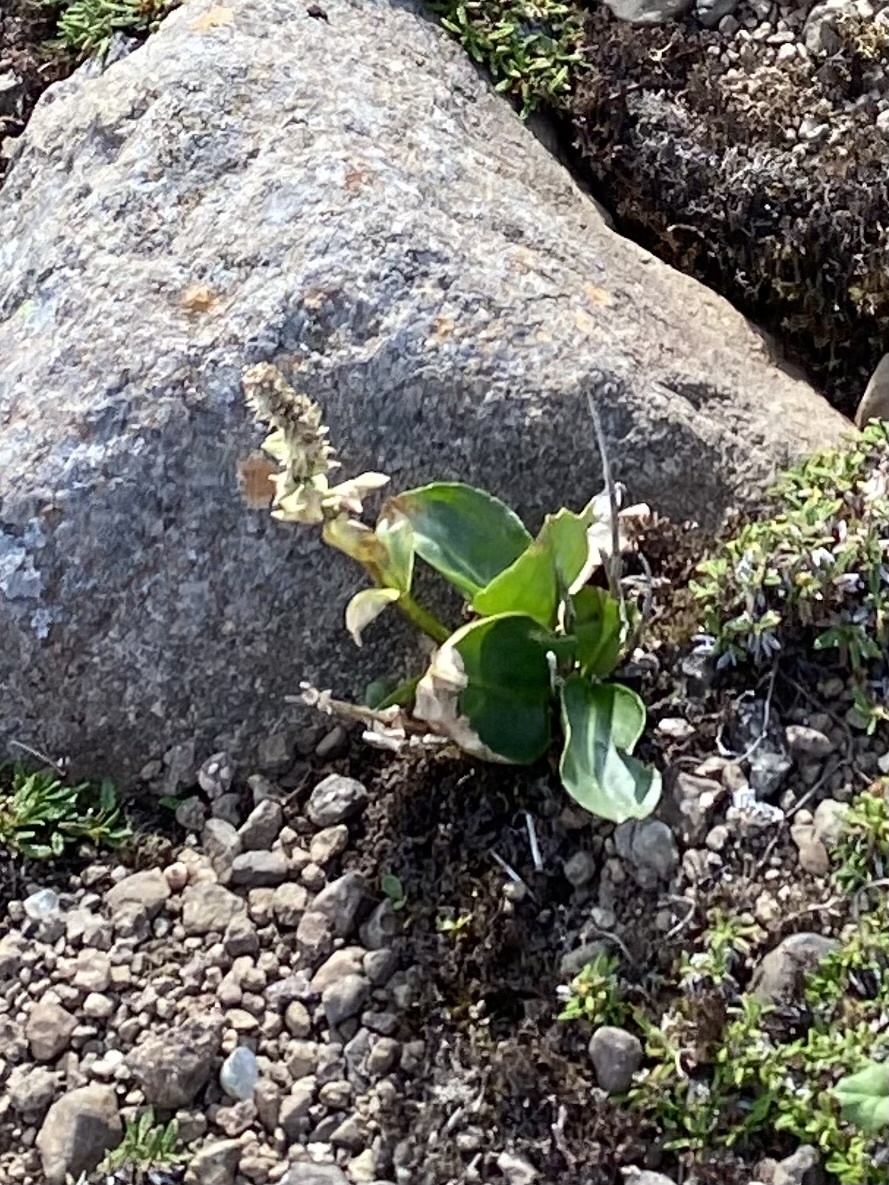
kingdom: Plantae
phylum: Tracheophyta
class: Magnoliopsida
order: Lamiales
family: Plantaginaceae
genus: Lagotis
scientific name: Lagotis glauca
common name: Glaucous weaselsnout
